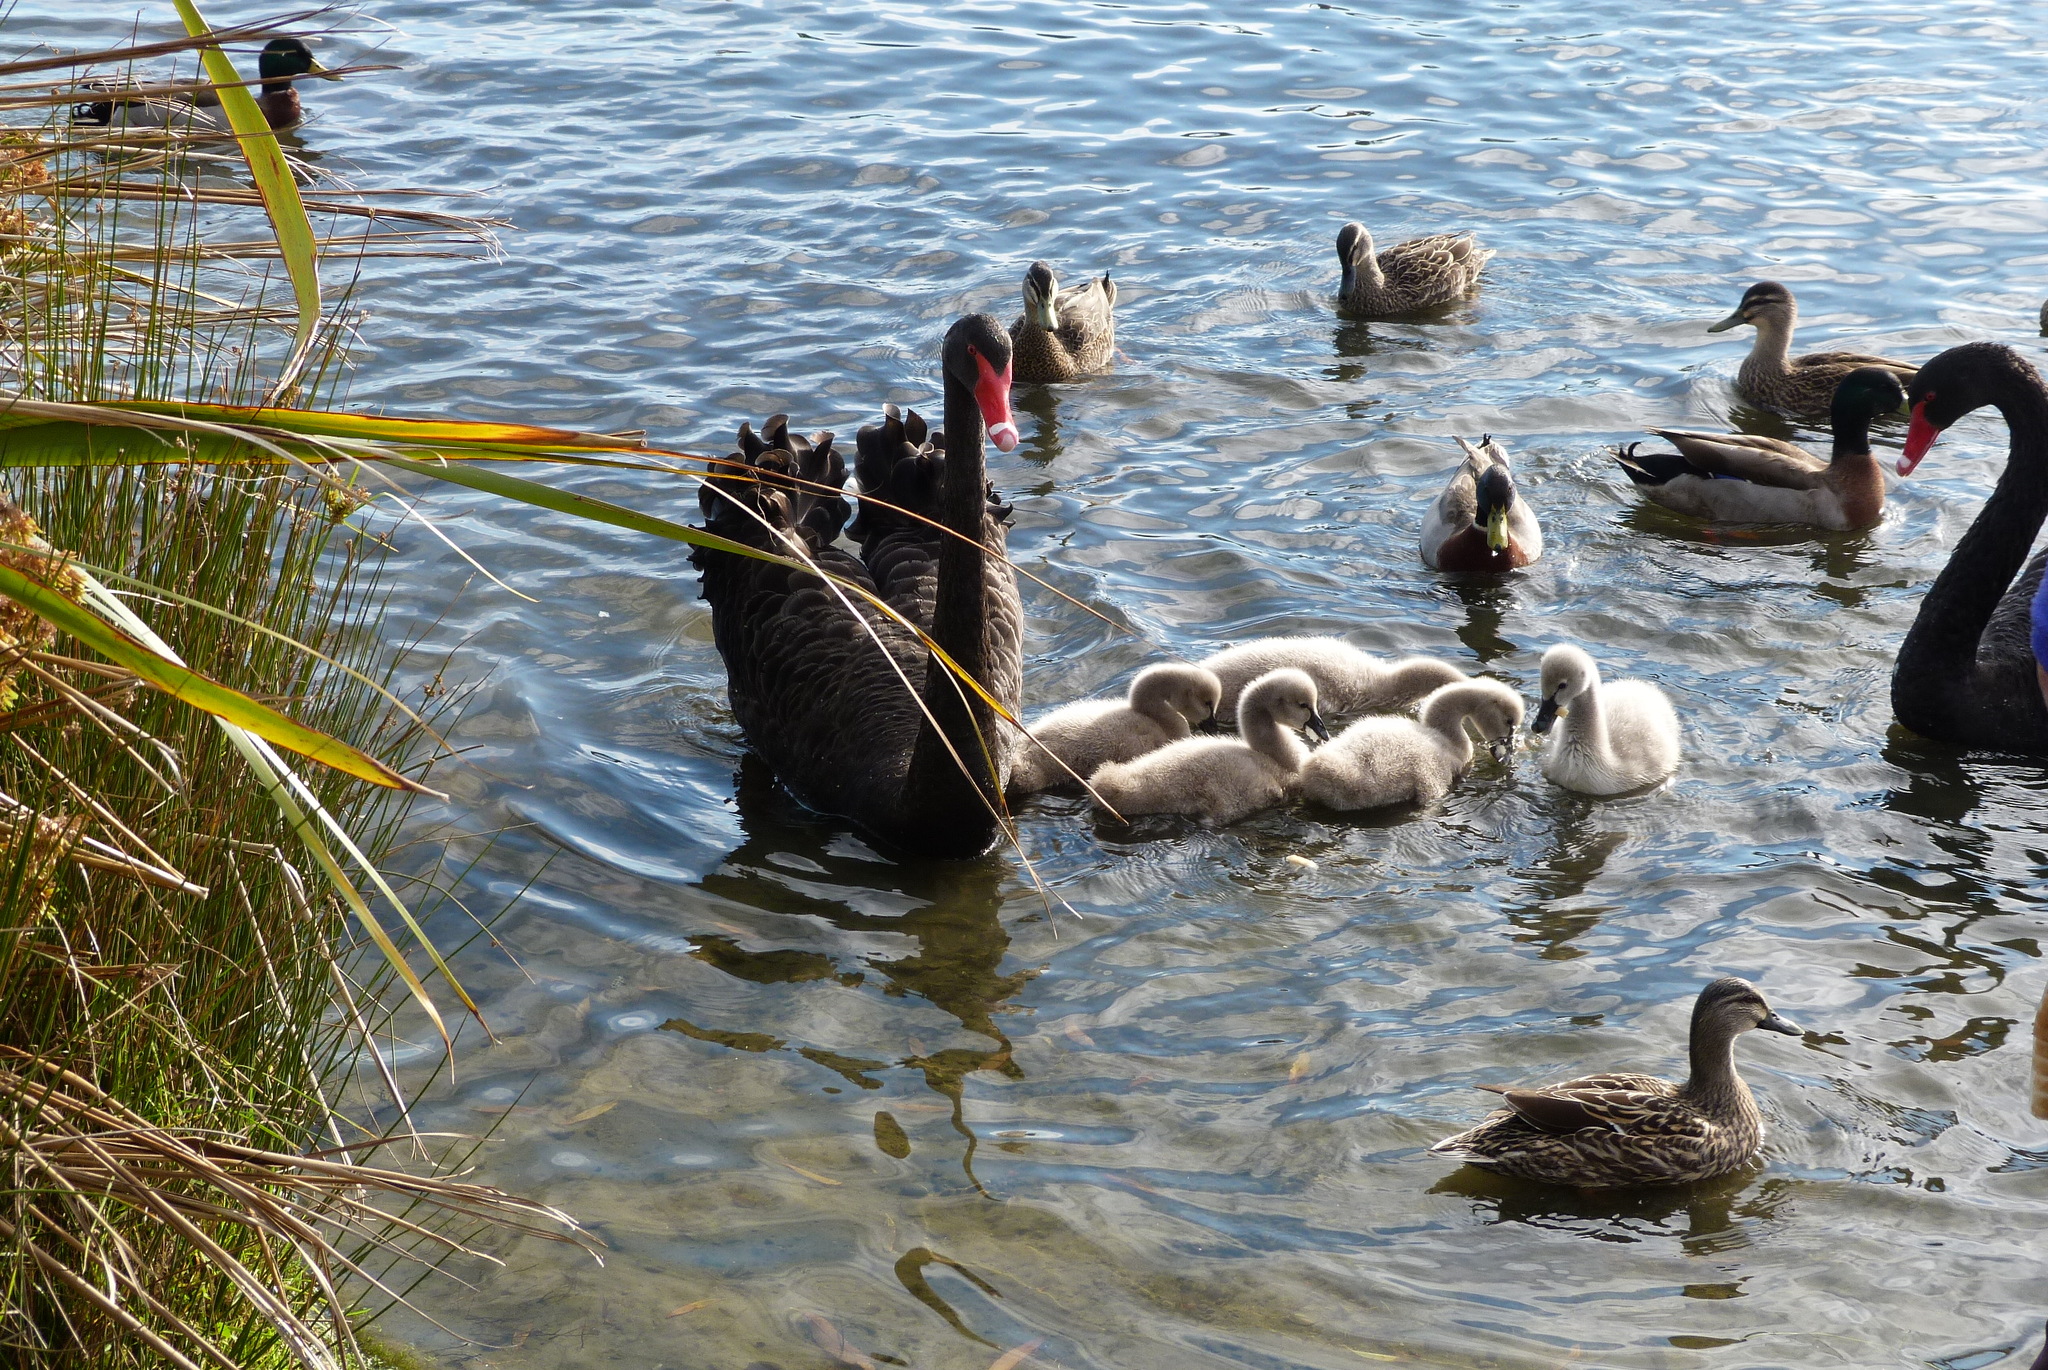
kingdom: Animalia
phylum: Chordata
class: Aves
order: Anseriformes
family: Anatidae
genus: Cygnus
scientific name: Cygnus atratus
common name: Black swan
